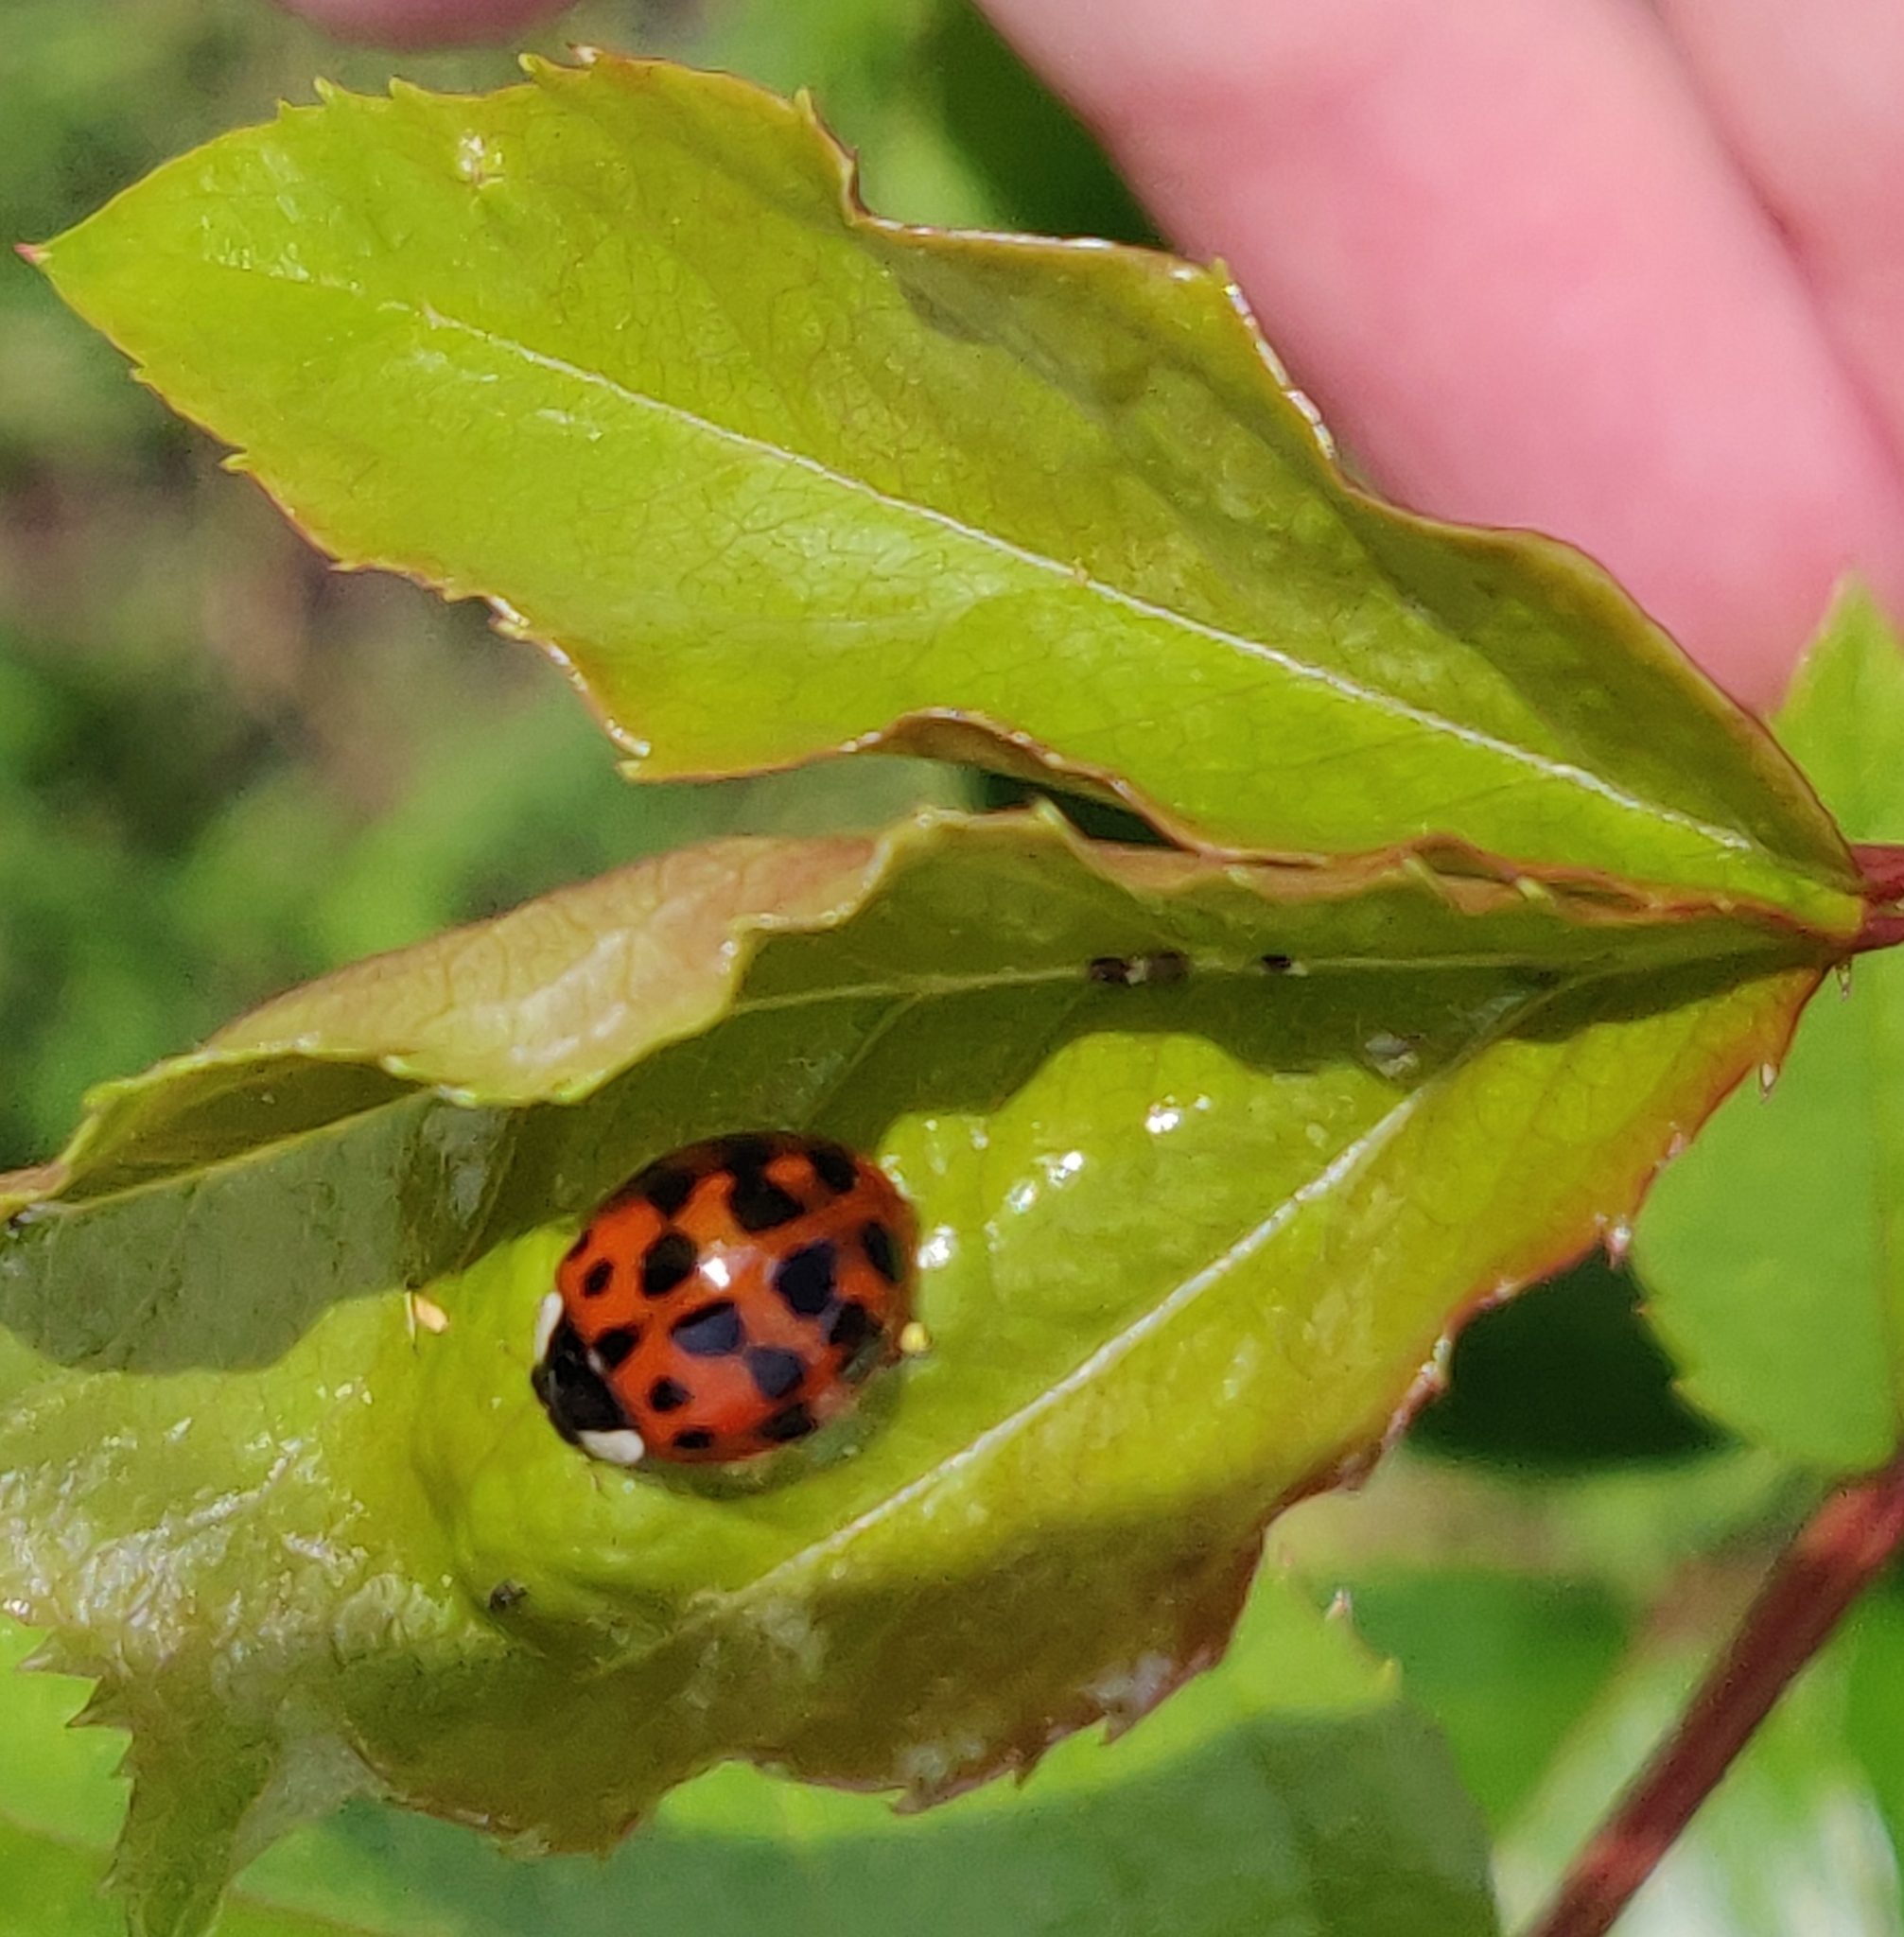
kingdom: Animalia
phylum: Arthropoda
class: Insecta
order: Coleoptera
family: Coccinellidae
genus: Harmonia
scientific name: Harmonia axyridis
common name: Harlequin ladybird
